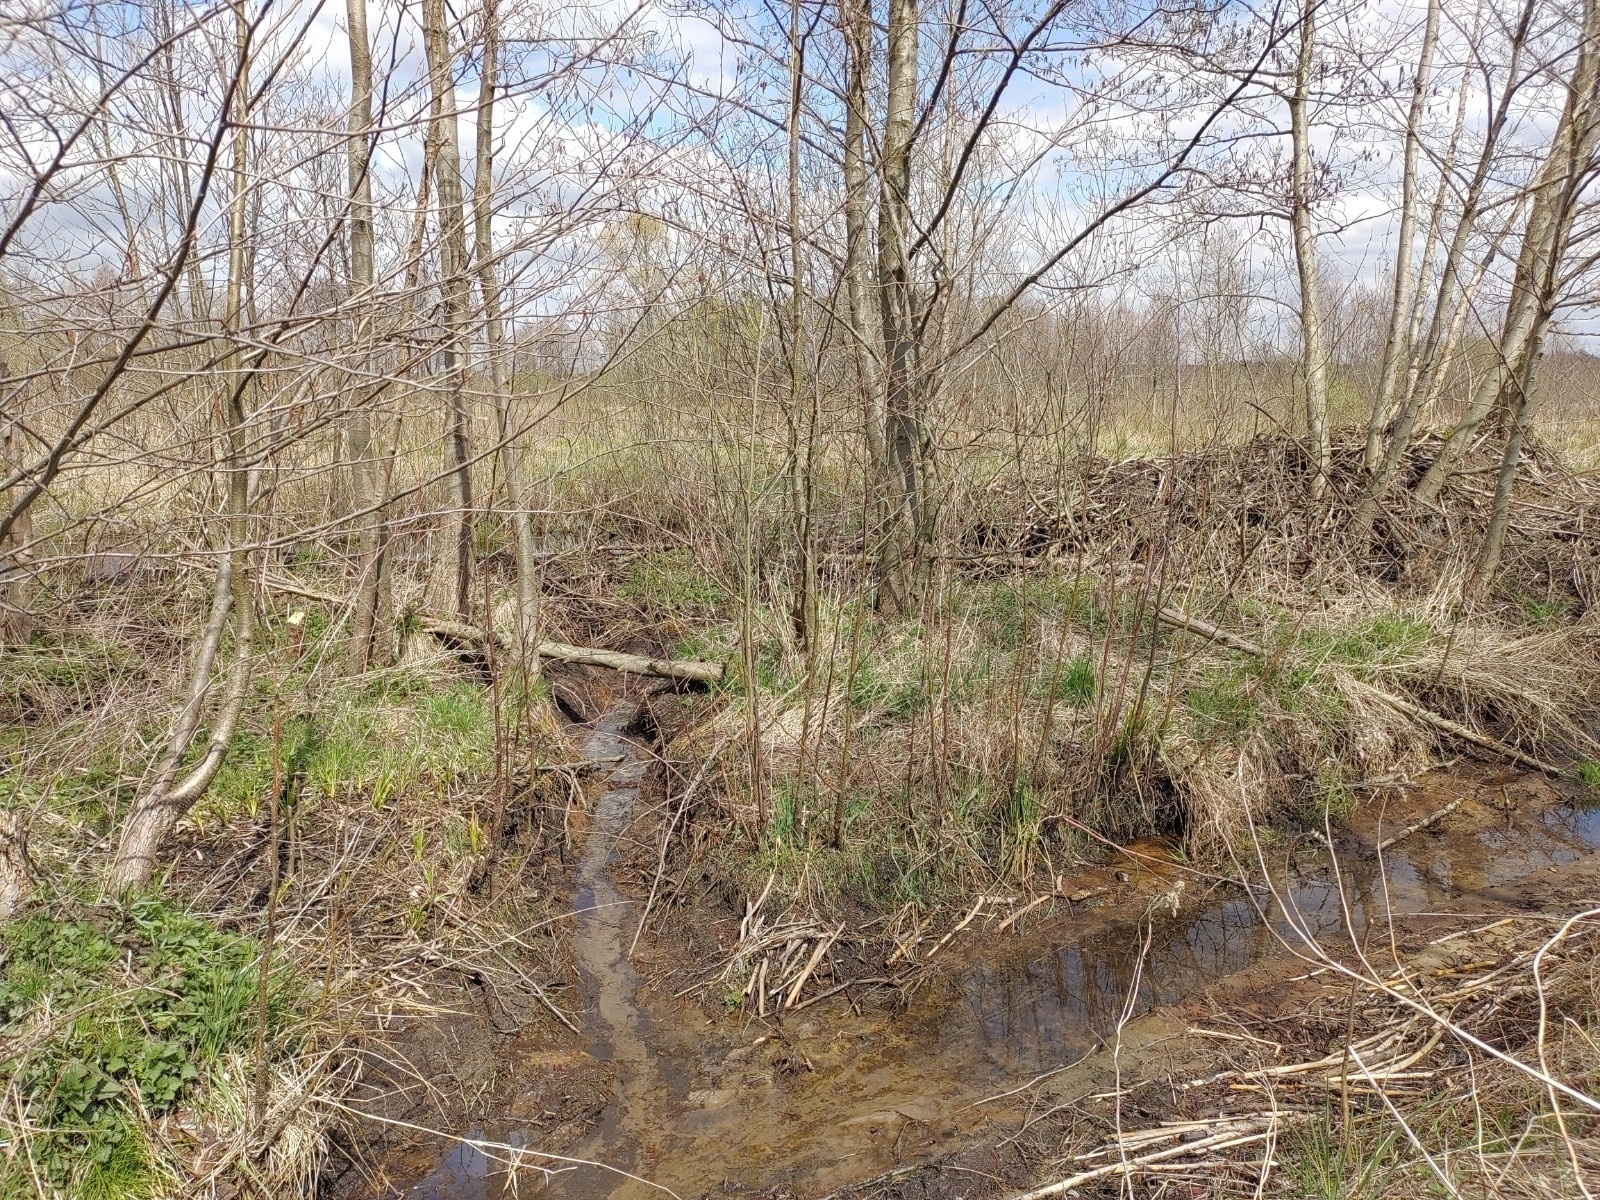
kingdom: Animalia
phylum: Chordata
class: Mammalia
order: Rodentia
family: Castoridae
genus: Castor
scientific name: Castor fiber
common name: Eurasian beaver
